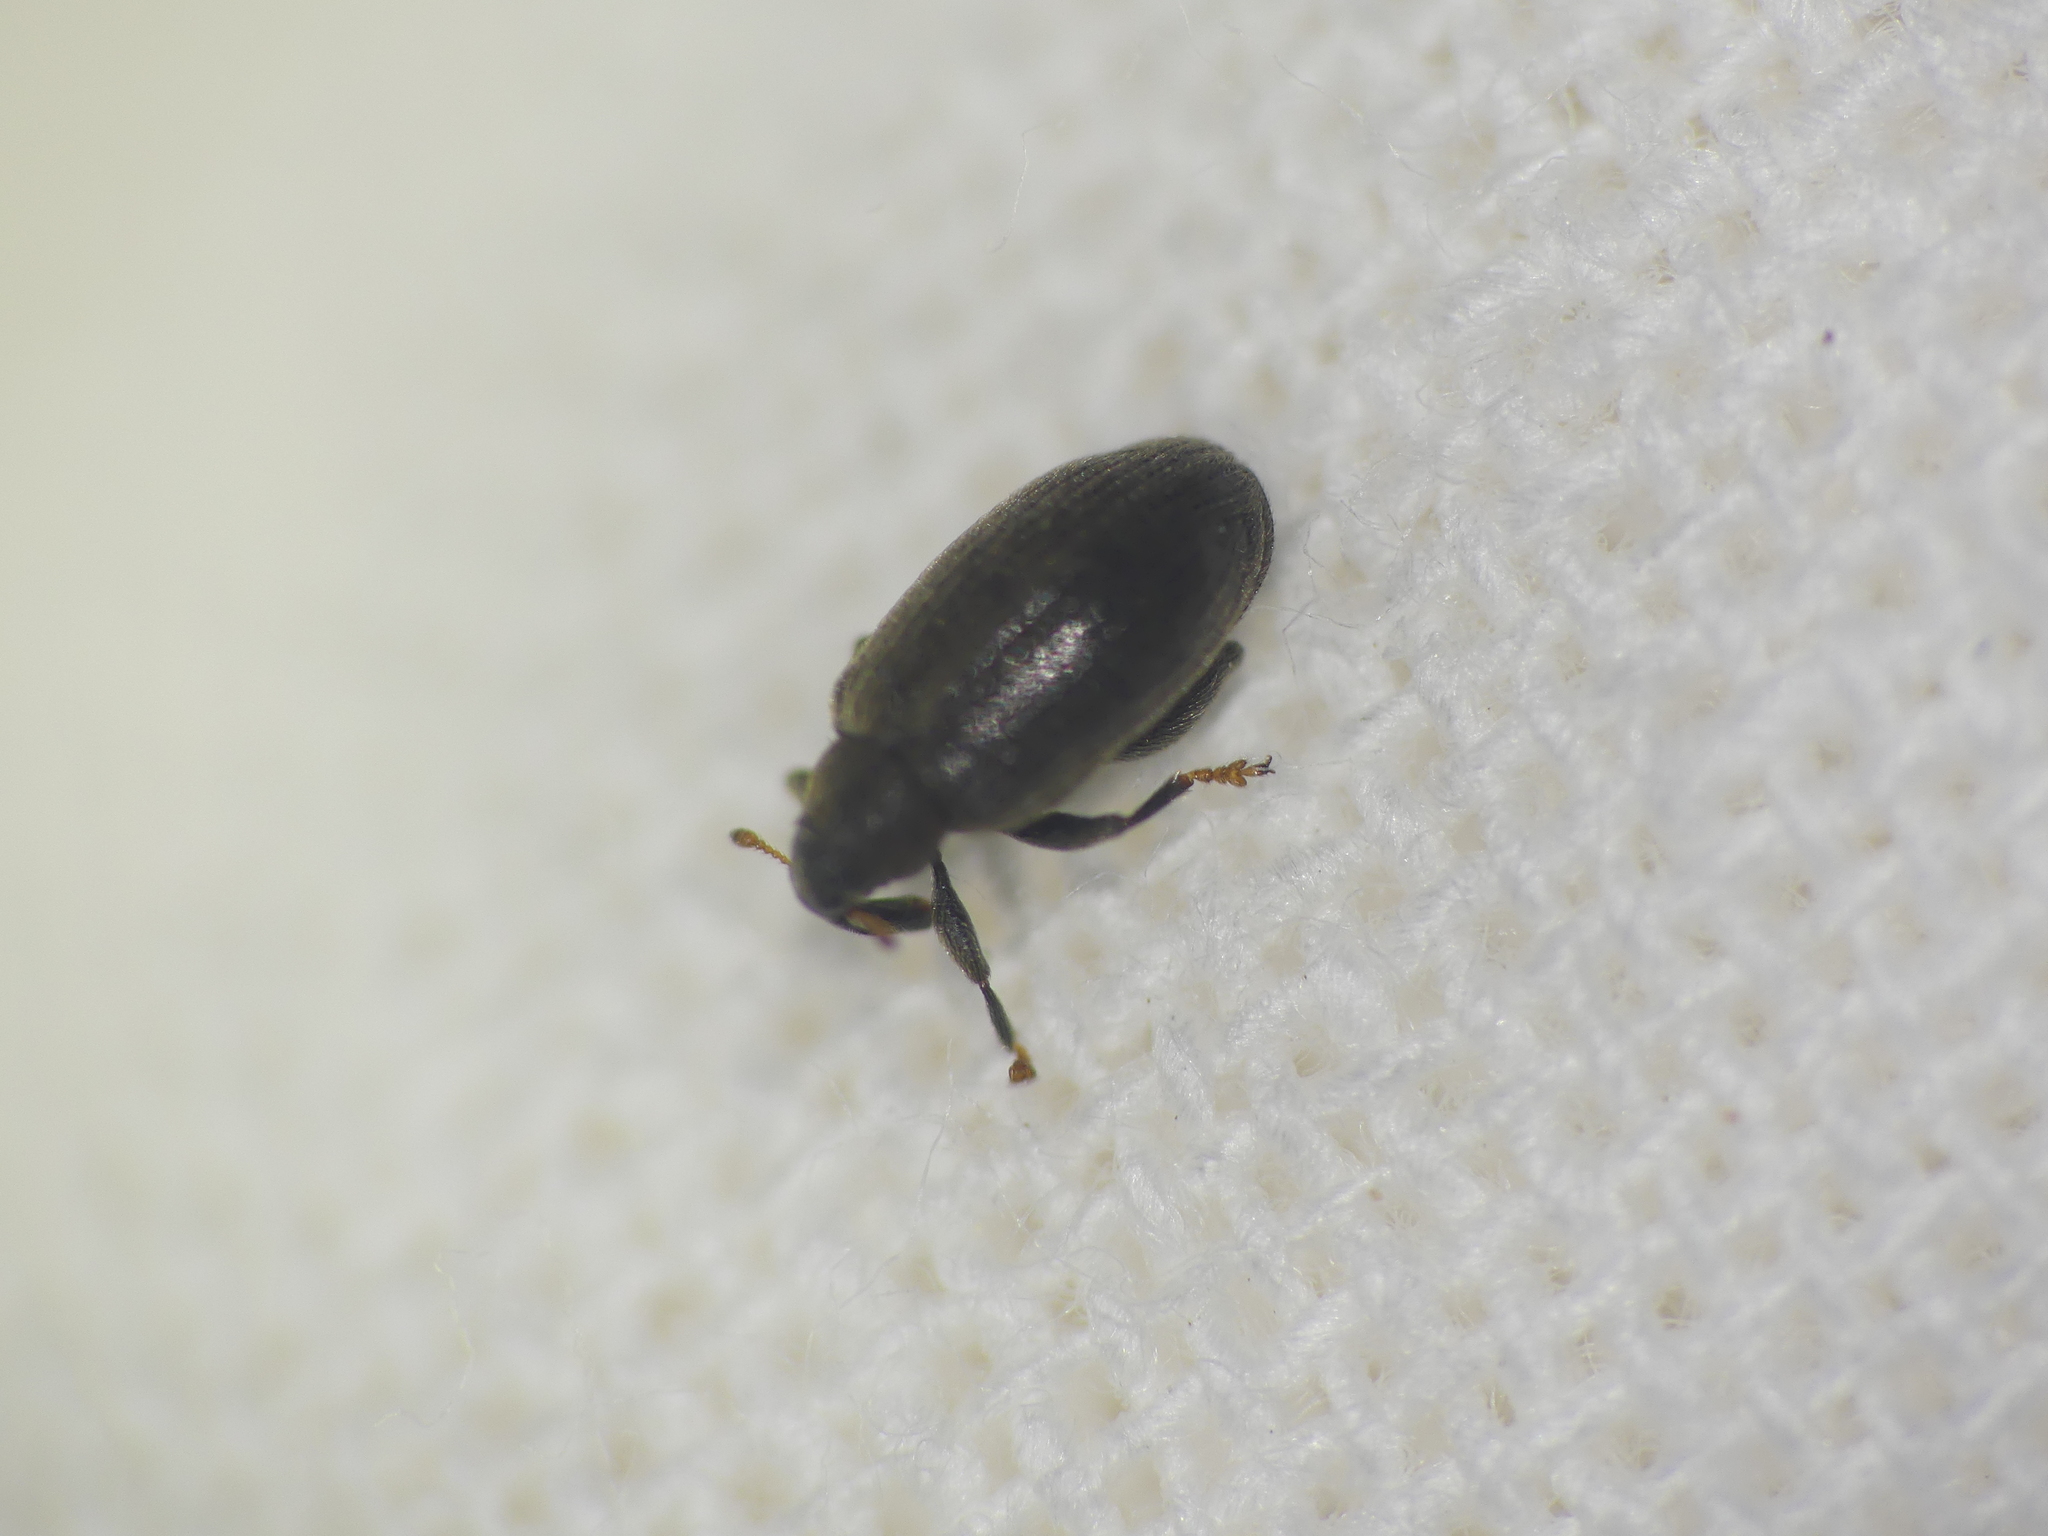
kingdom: Animalia
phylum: Arthropoda
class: Insecta
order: Coleoptera
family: Curculionidae
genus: Orchestes
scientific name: Orchestes fagi
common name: Beech leaf miner
